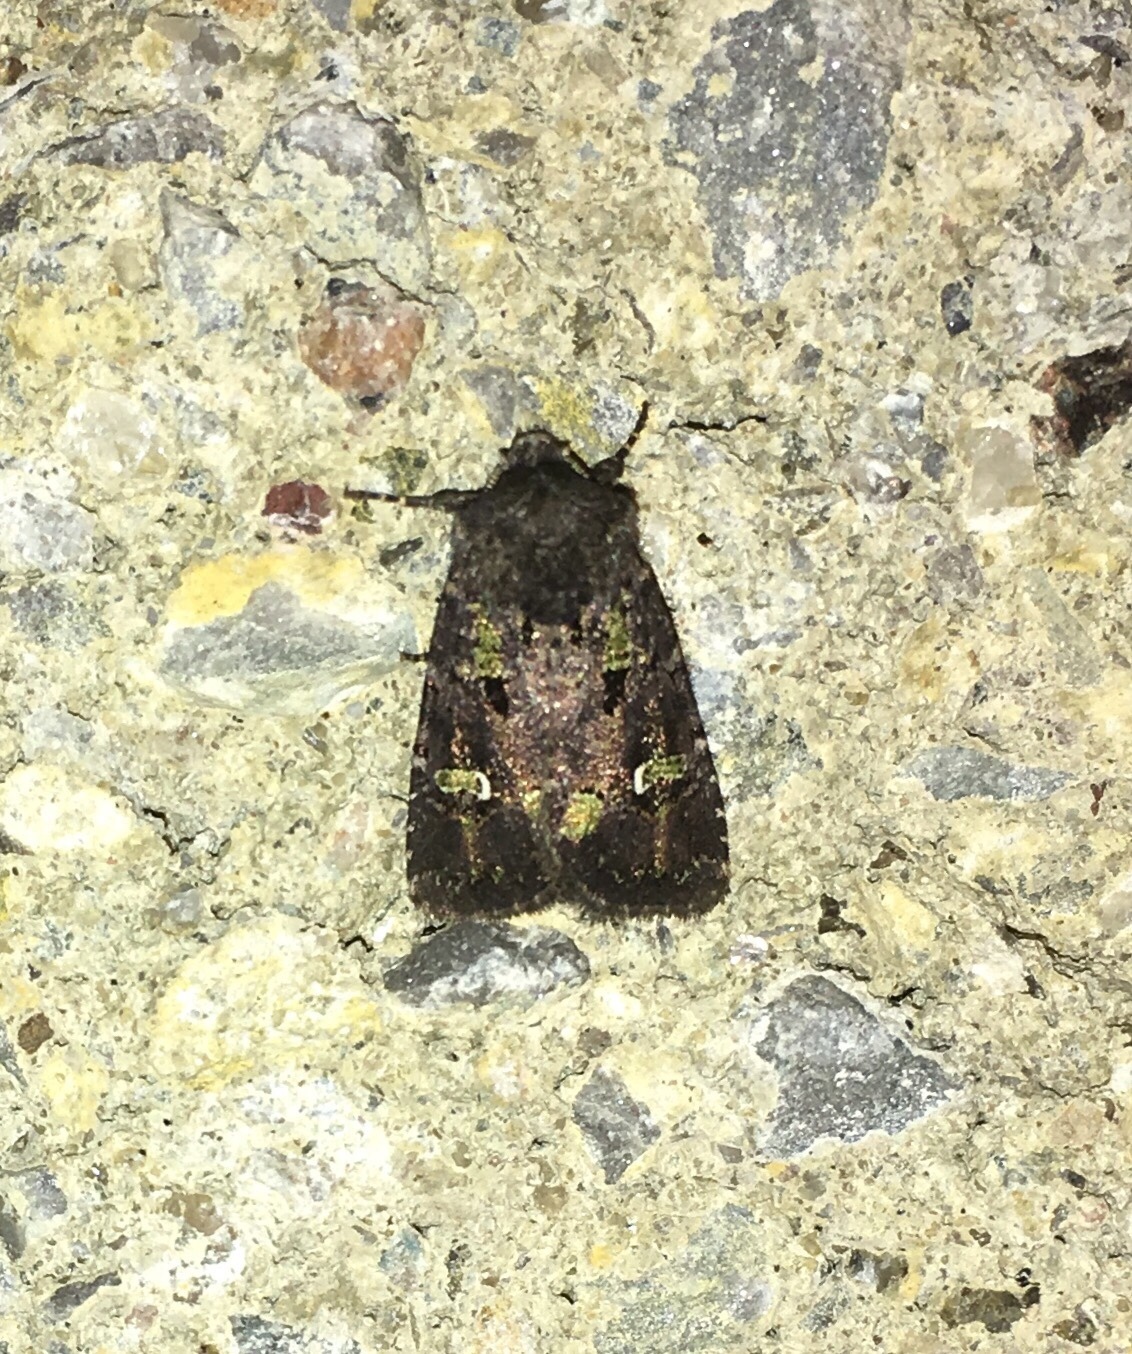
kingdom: Animalia
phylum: Arthropoda
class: Insecta
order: Lepidoptera
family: Noctuidae
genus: Lacinipolia
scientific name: Lacinipolia renigera
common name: Kidney-spotted minor
